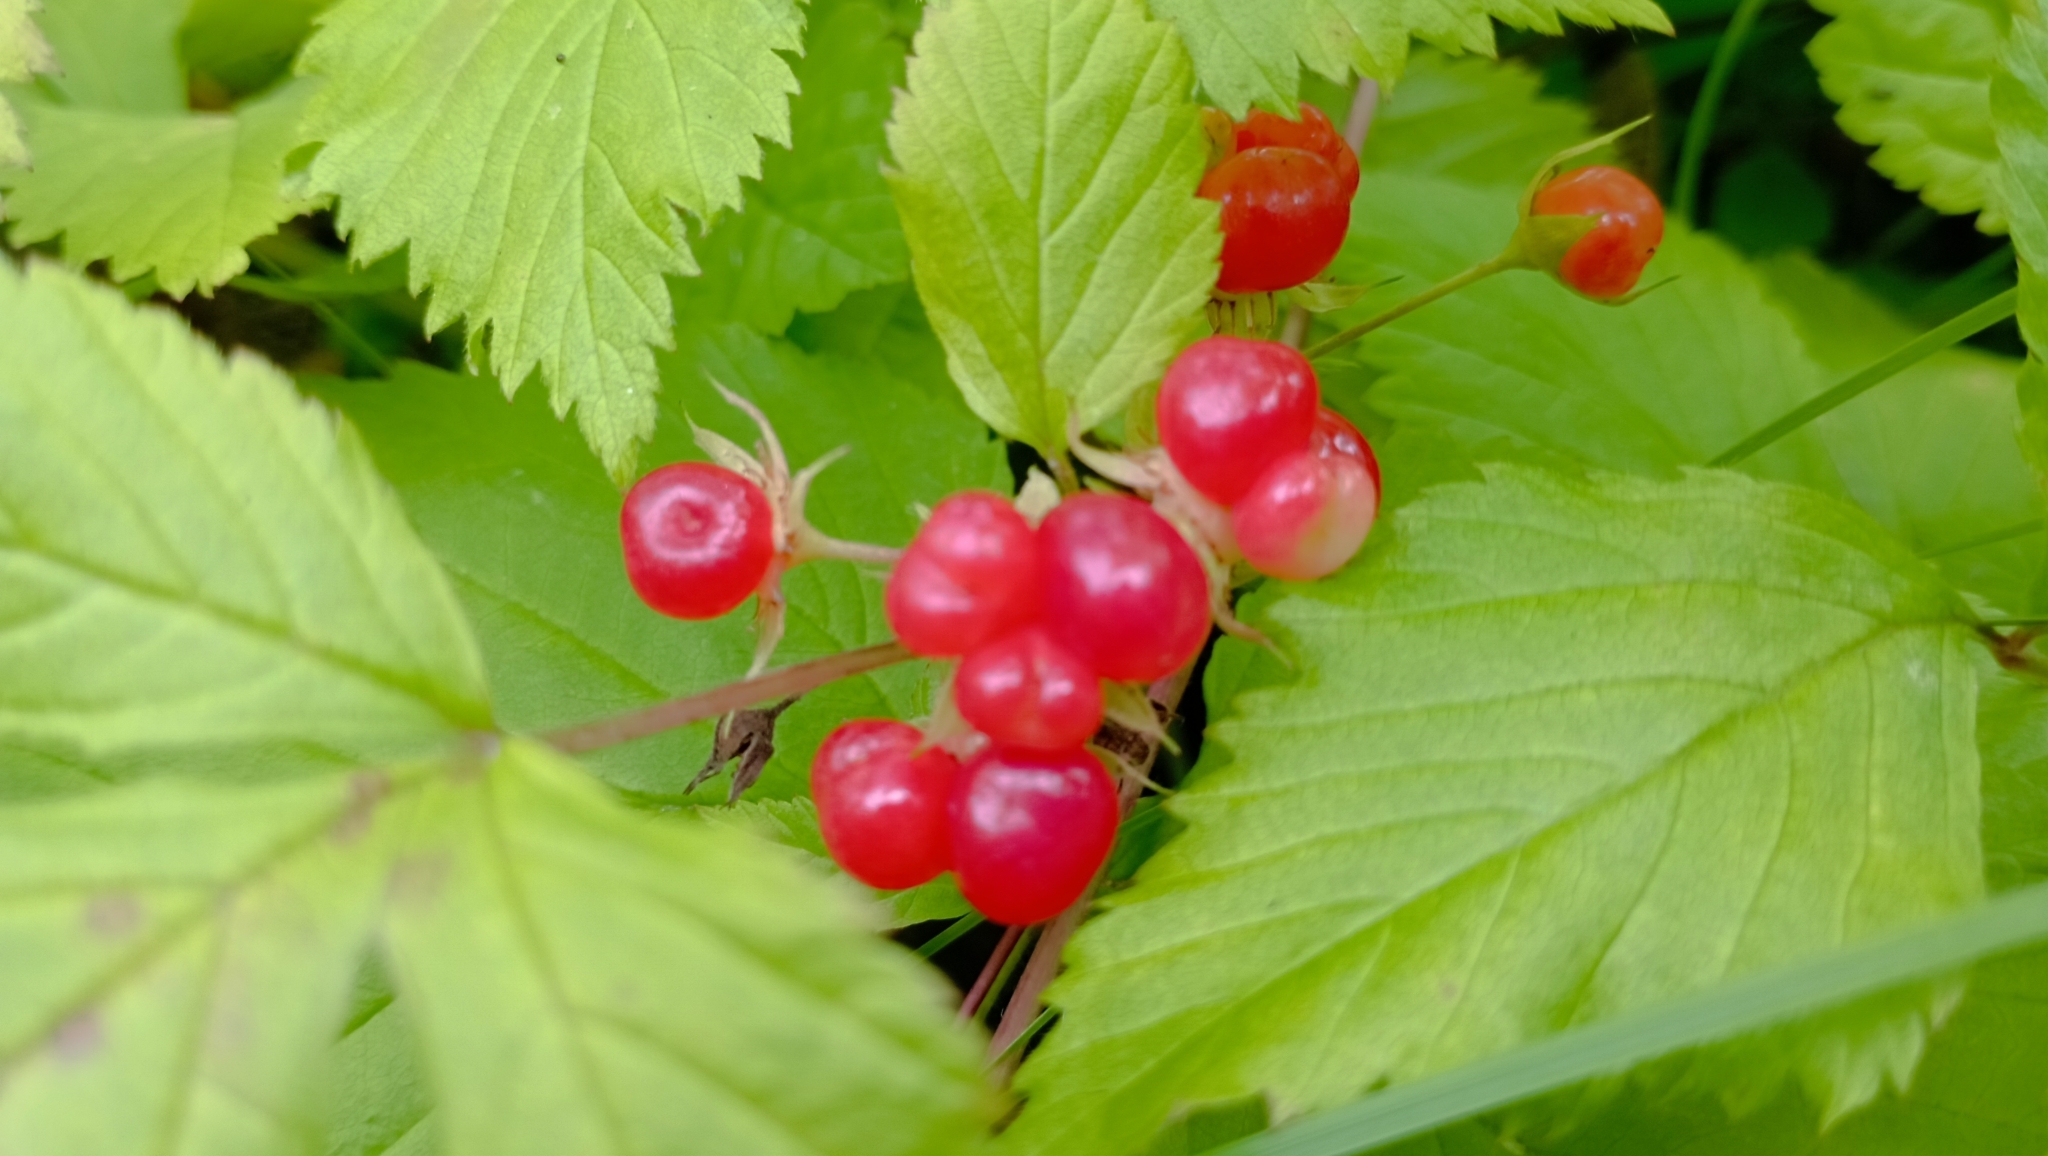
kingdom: Plantae
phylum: Tracheophyta
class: Magnoliopsida
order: Rosales
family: Rosaceae
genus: Rubus
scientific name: Rubus saxatilis
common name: Stone bramble
